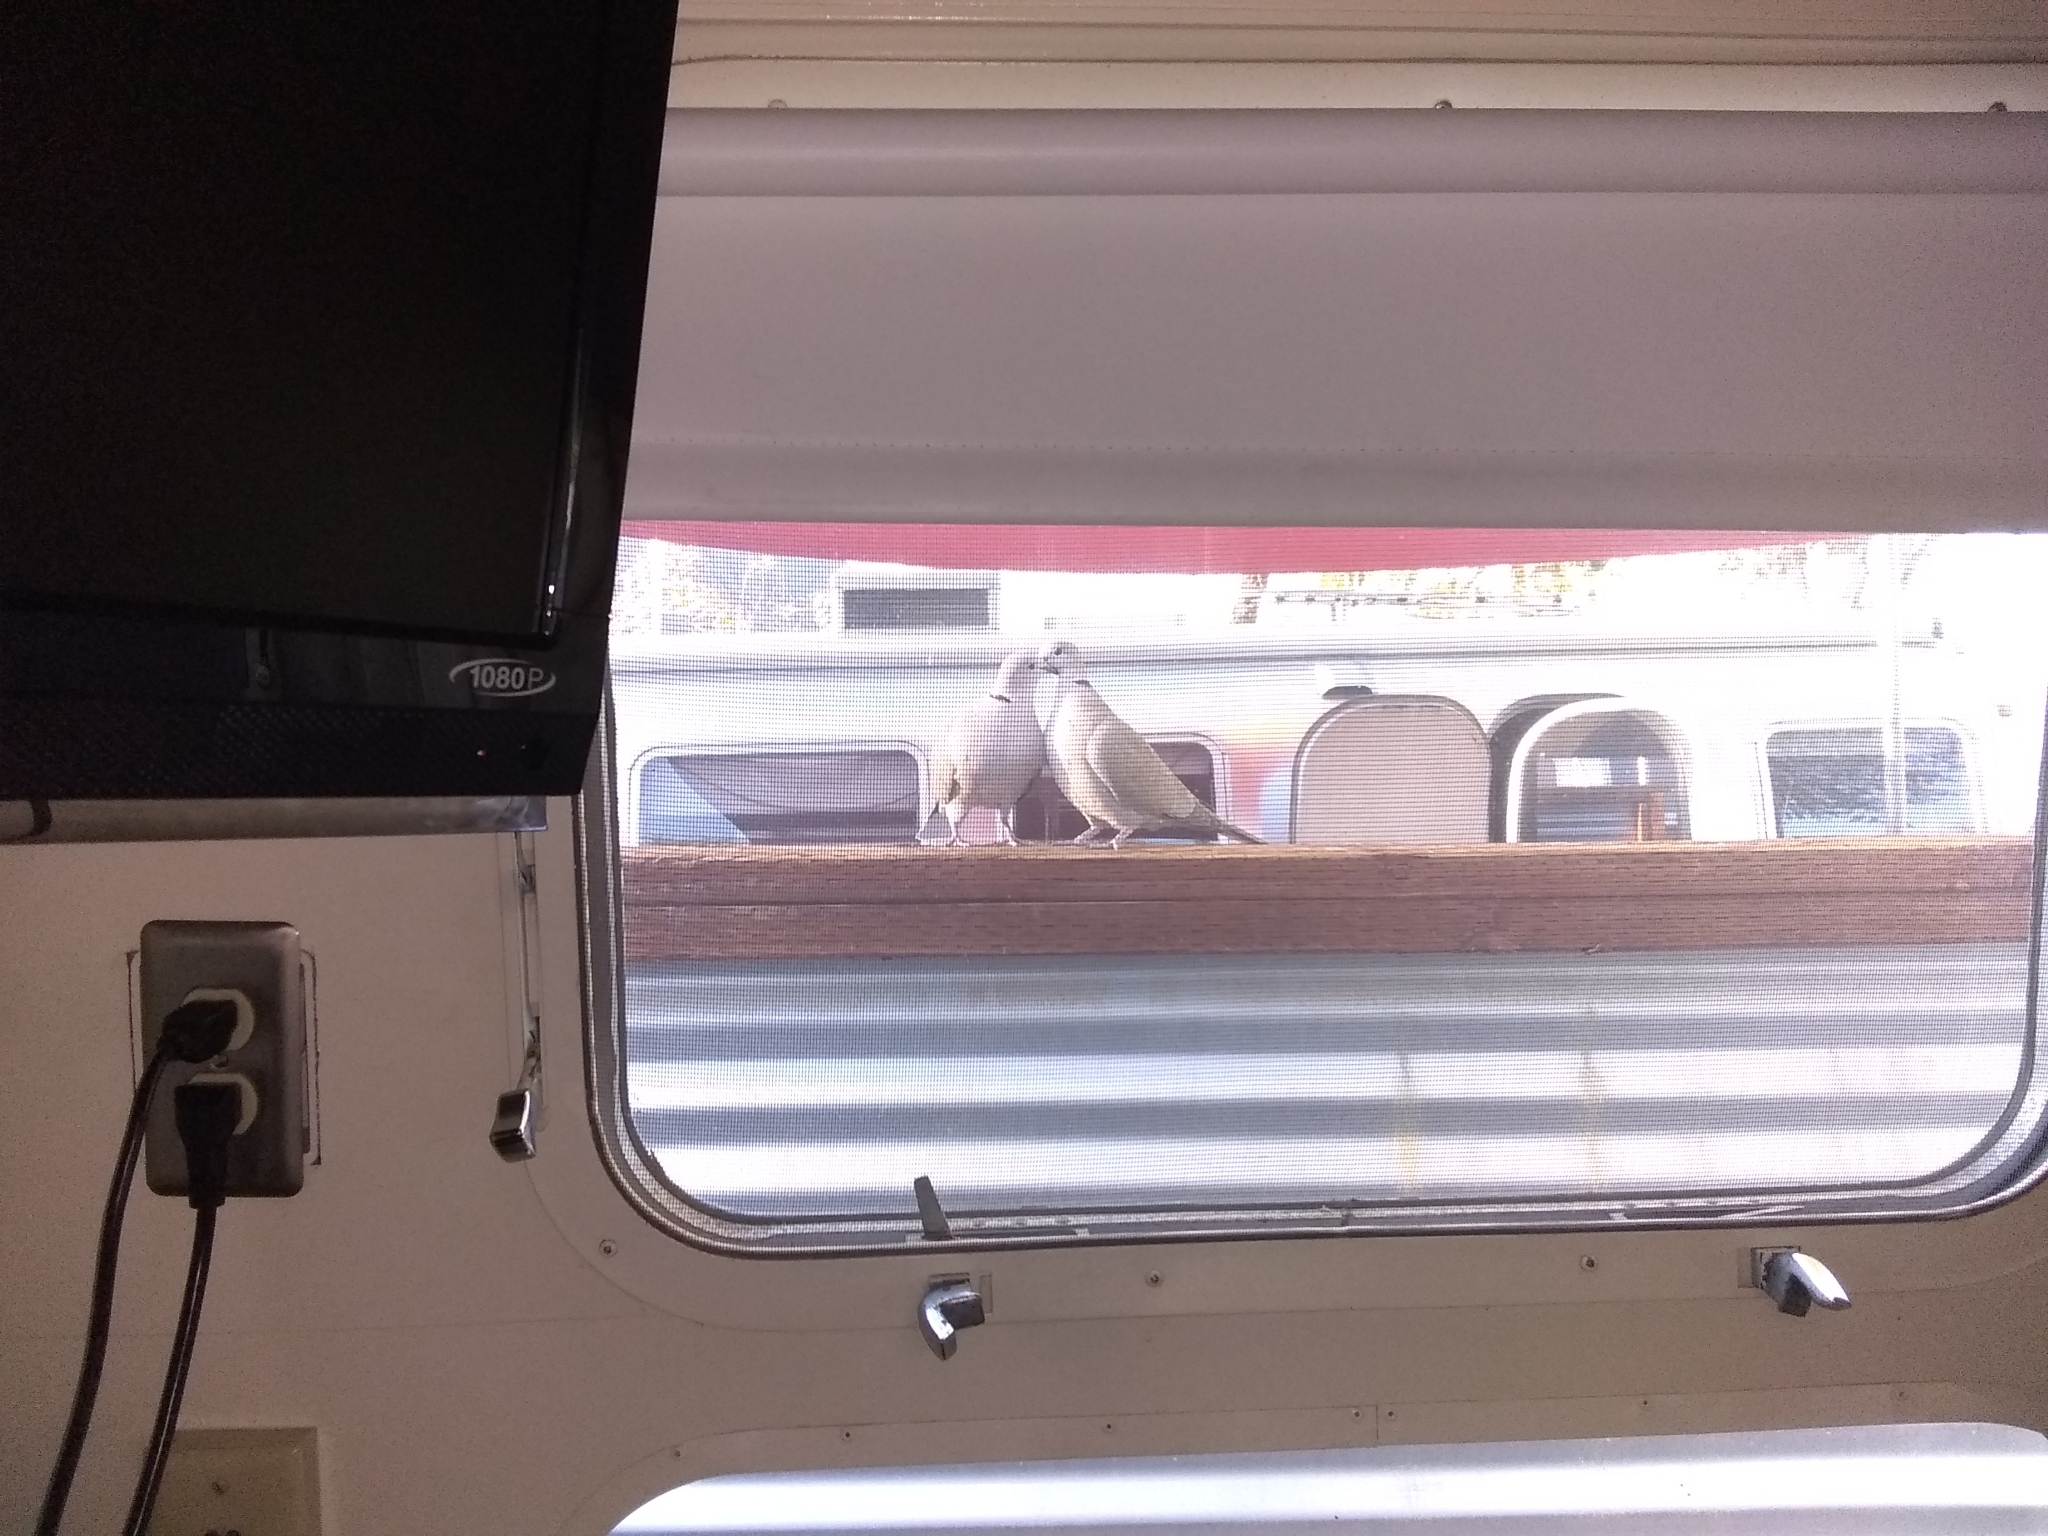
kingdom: Animalia
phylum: Chordata
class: Aves
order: Columbiformes
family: Columbidae
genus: Streptopelia
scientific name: Streptopelia decaocto
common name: Eurasian collared dove
